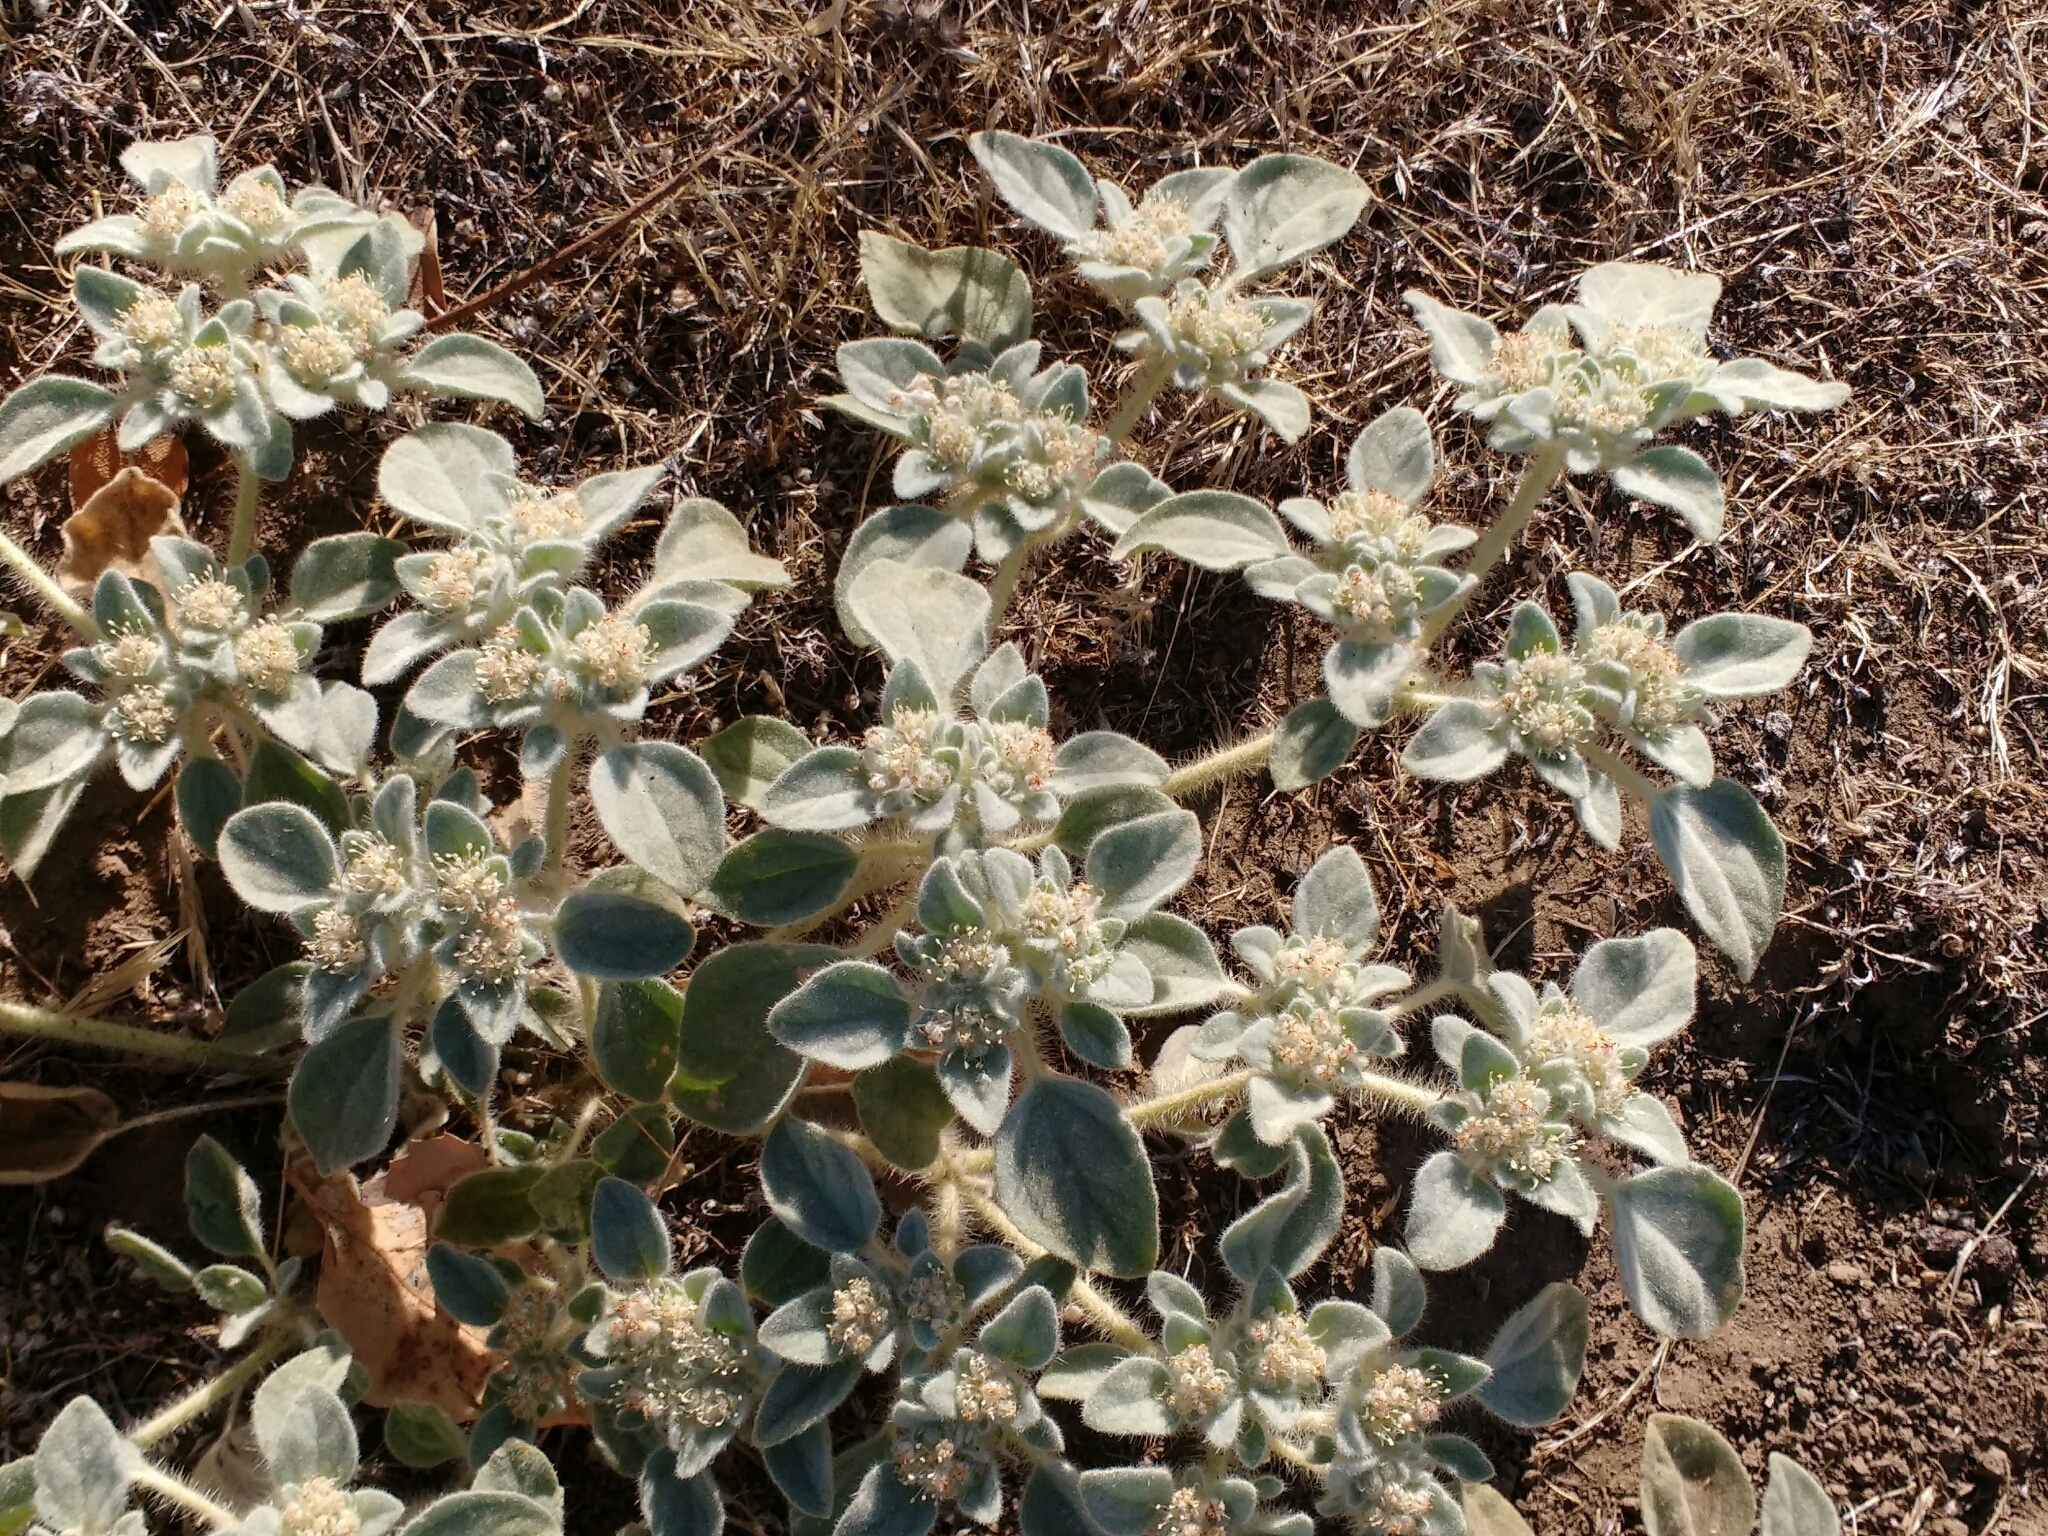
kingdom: Plantae
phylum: Tracheophyta
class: Magnoliopsida
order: Malpighiales
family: Euphorbiaceae
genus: Croton
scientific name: Croton setiger
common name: Dove weed
